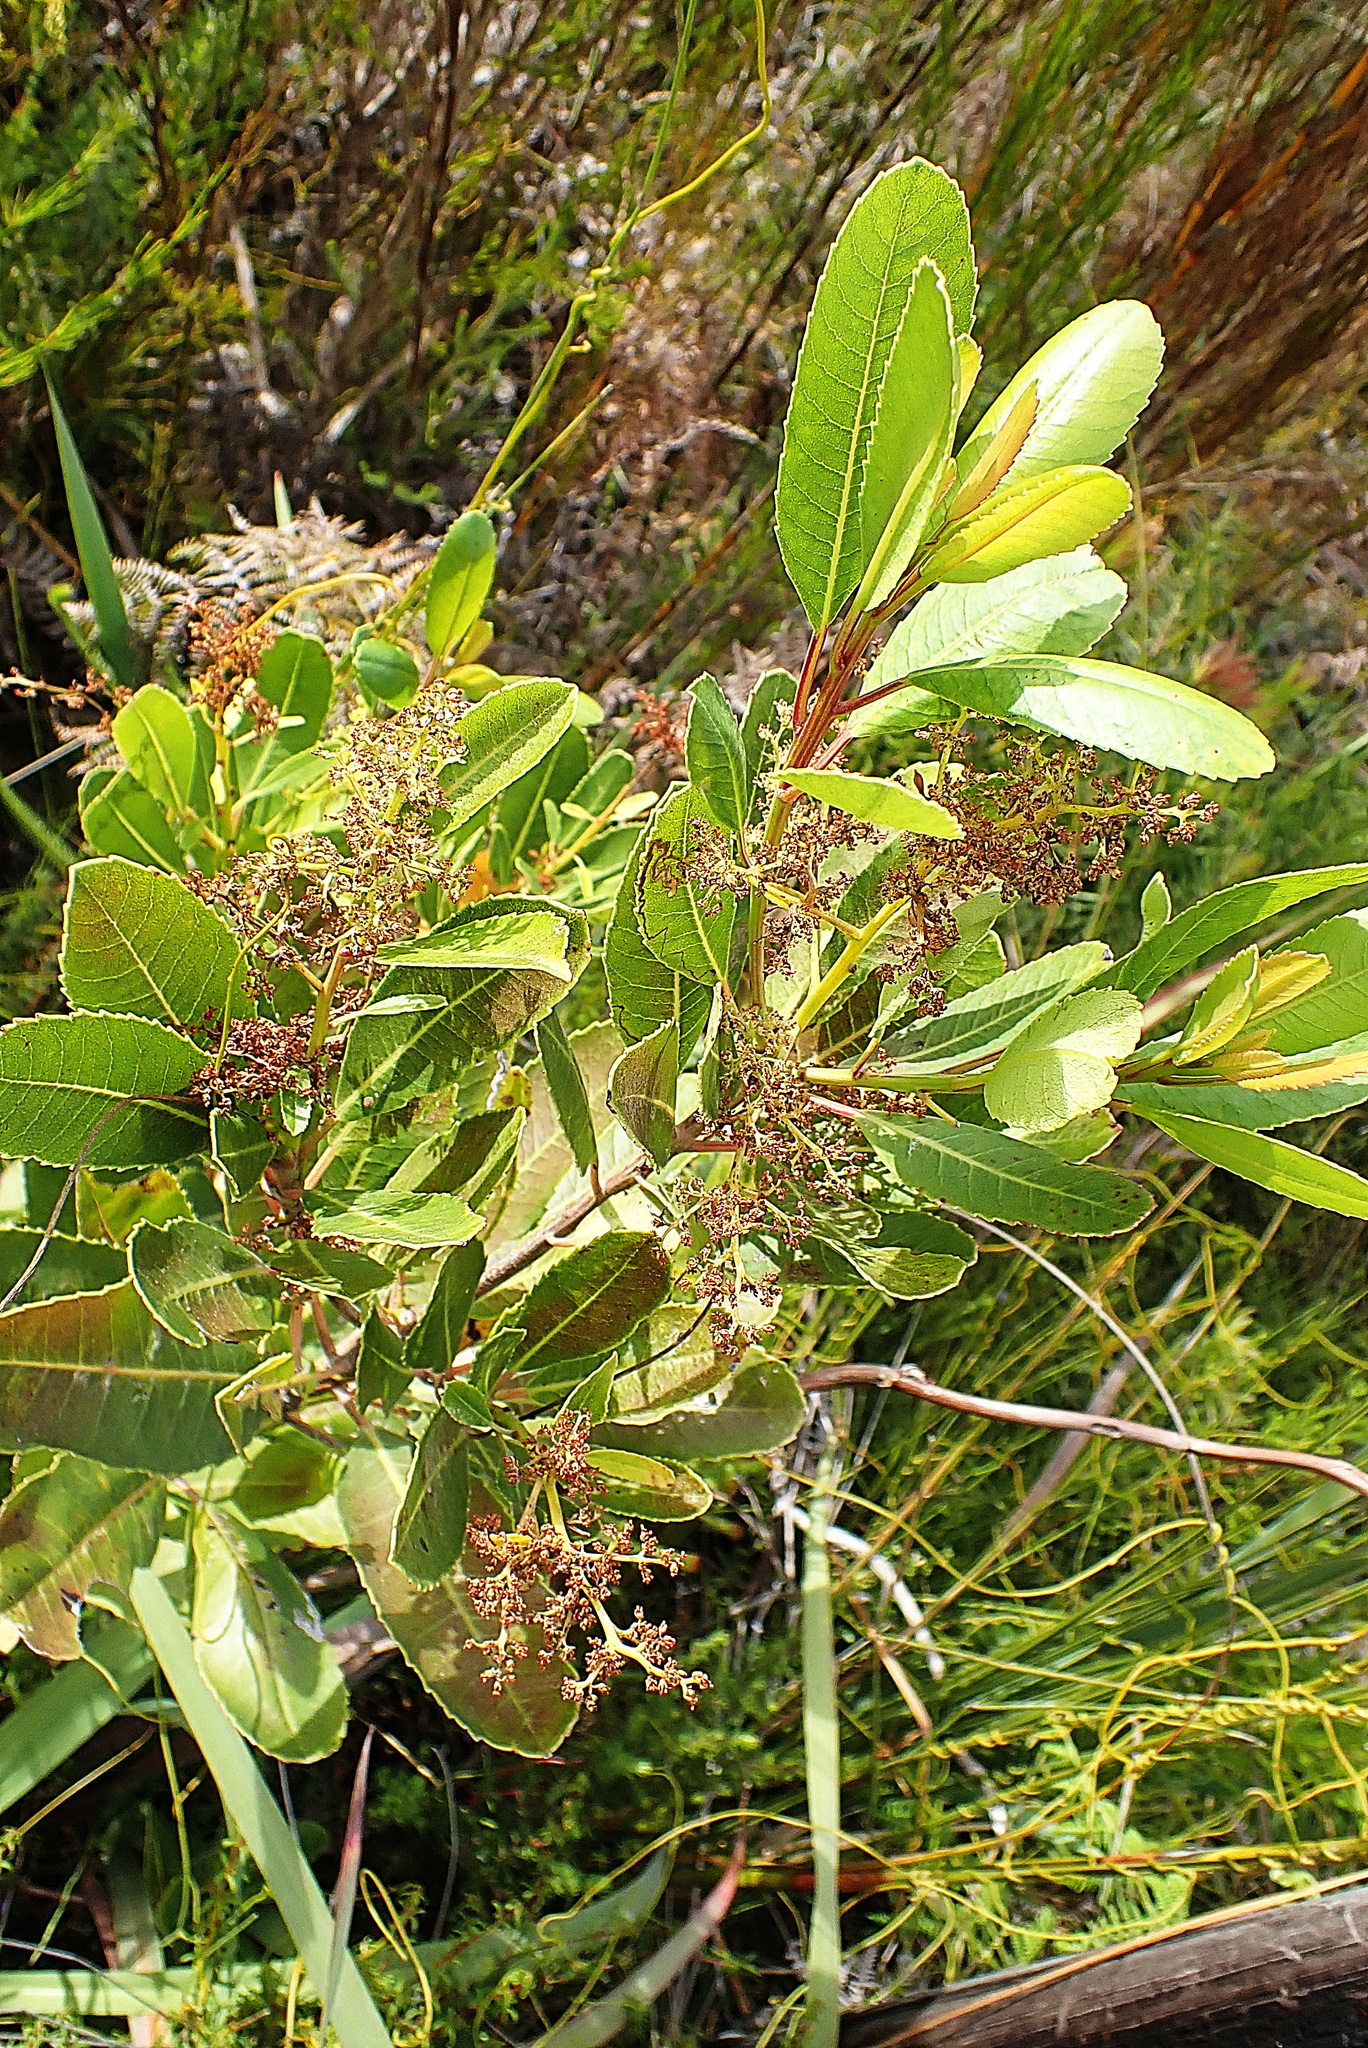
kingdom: Plantae
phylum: Tracheophyta
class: Magnoliopsida
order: Sapindales
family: Anacardiaceae
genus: Laurophyllus
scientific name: Laurophyllus capensis
